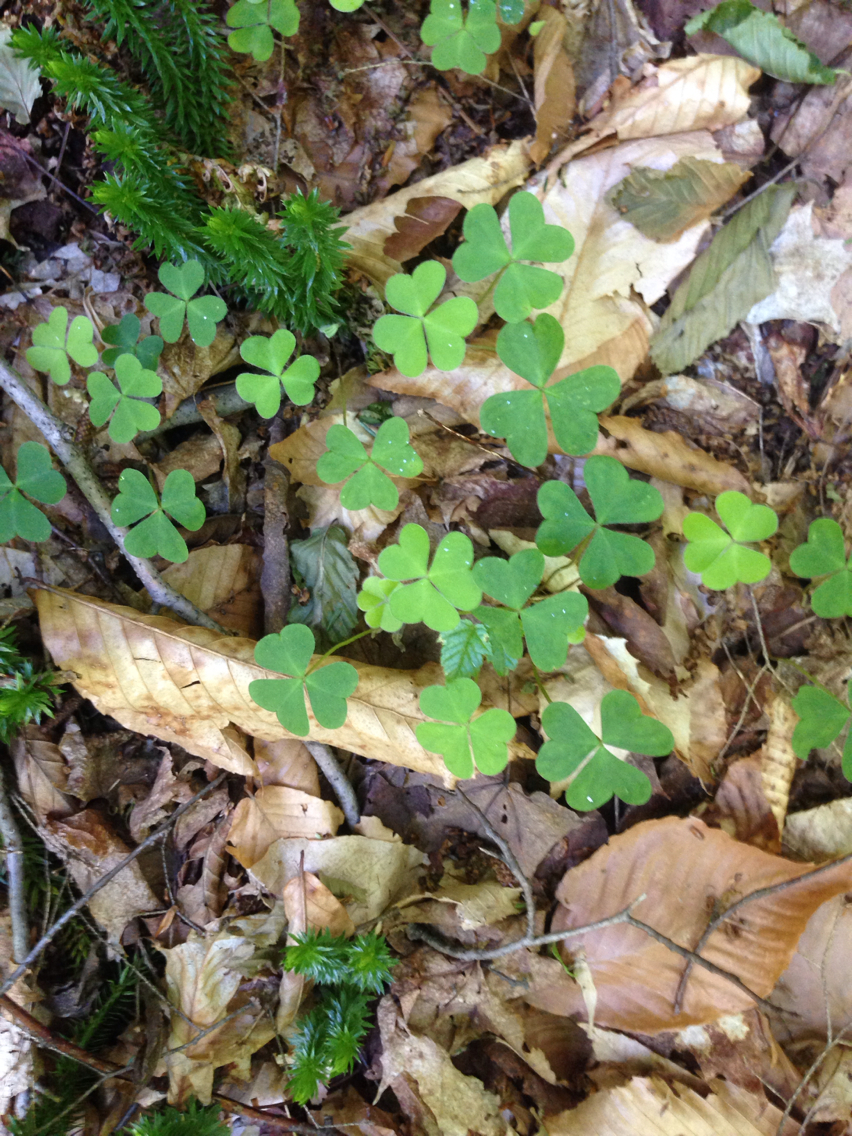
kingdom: Plantae
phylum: Tracheophyta
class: Magnoliopsida
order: Oxalidales
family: Oxalidaceae
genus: Oxalis
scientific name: Oxalis montana
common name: American wood-sorrel
